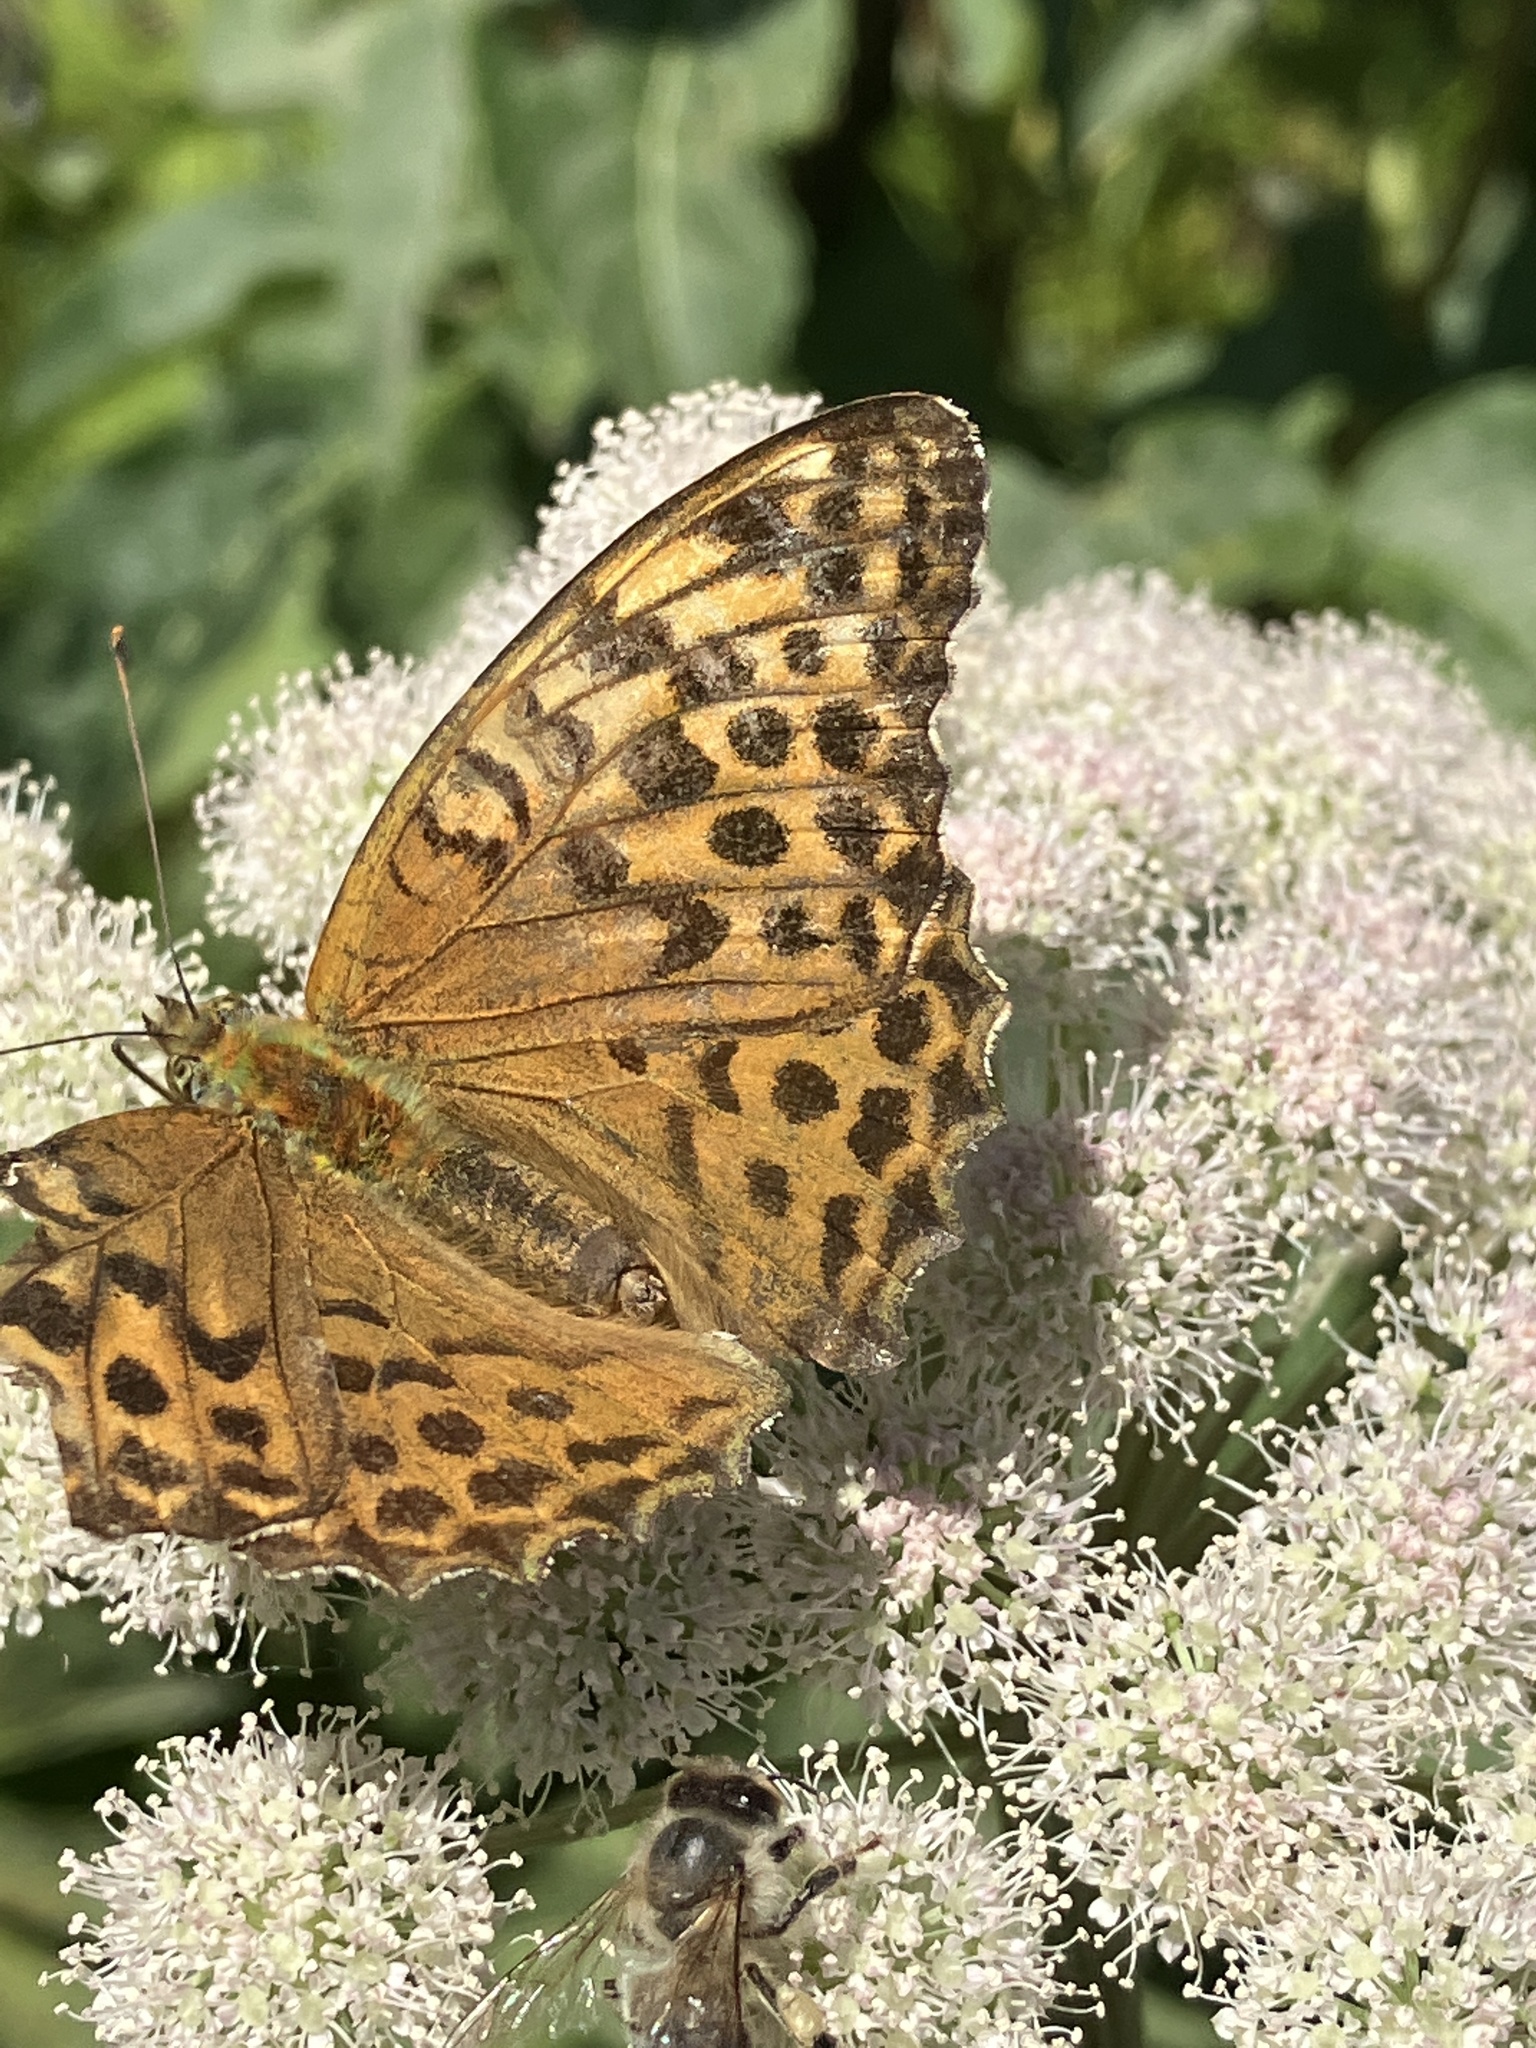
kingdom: Animalia
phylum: Arthropoda
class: Insecta
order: Lepidoptera
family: Nymphalidae
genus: Argynnis
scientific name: Argynnis paphia
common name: Silver-washed fritillary
